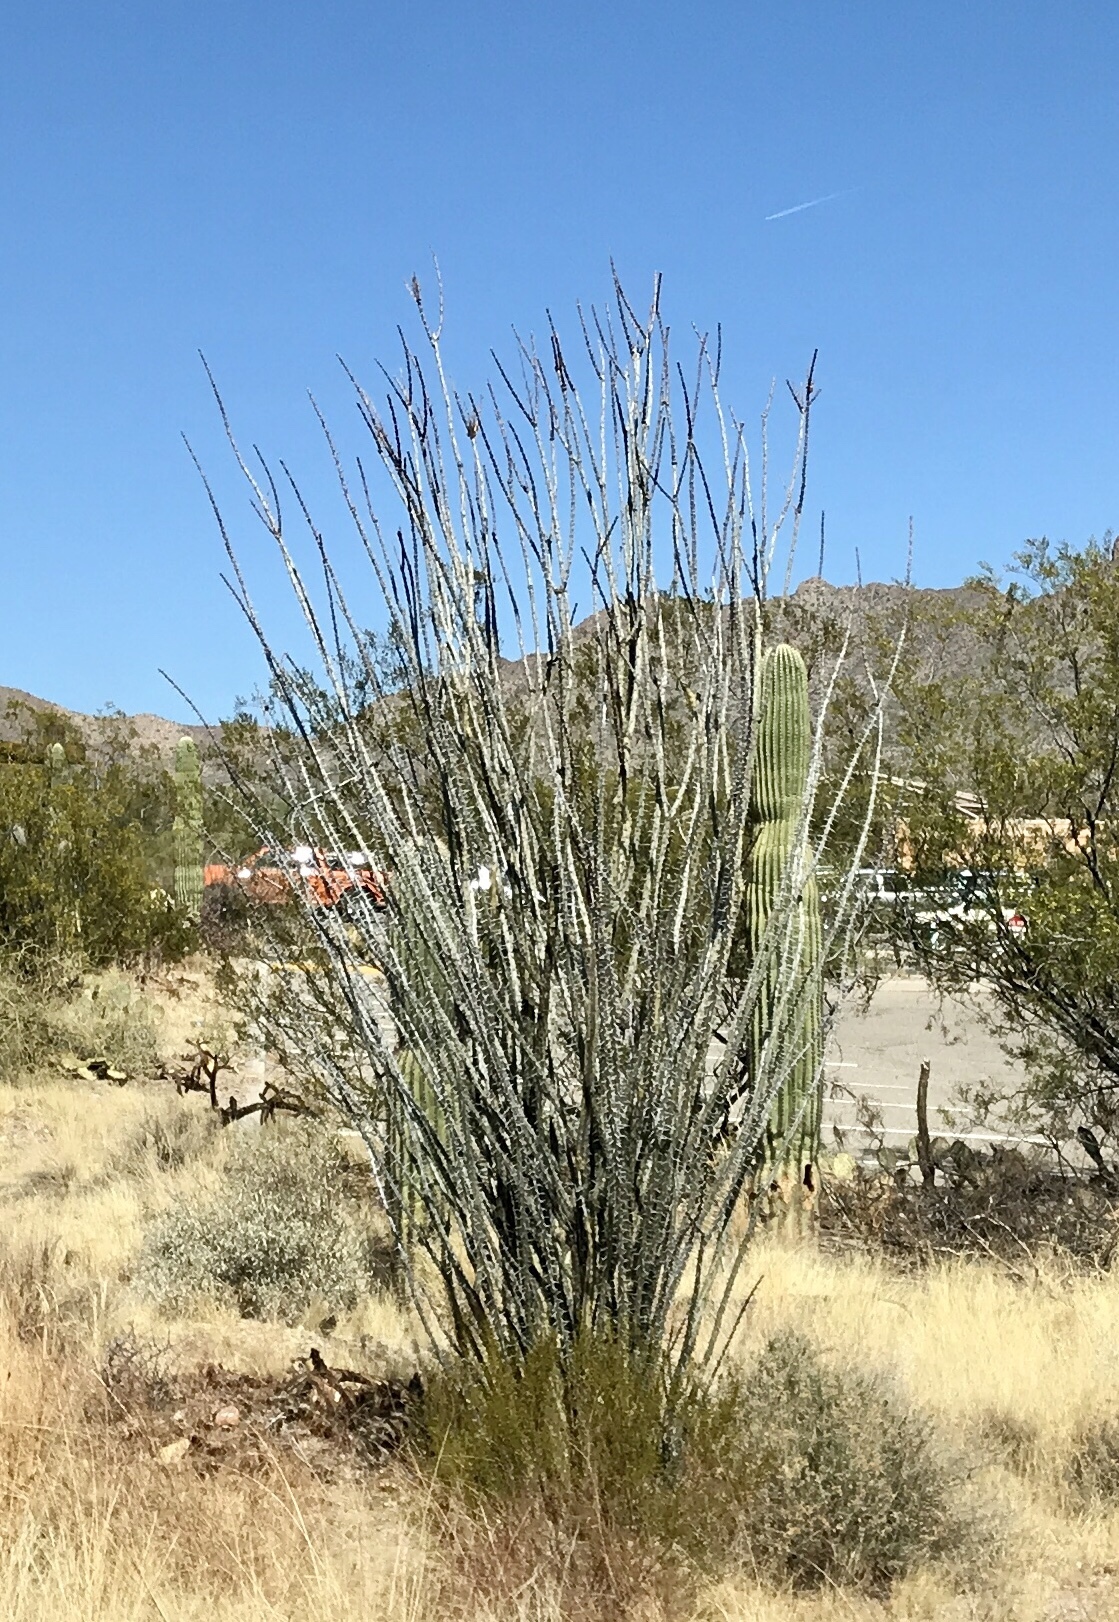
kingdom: Plantae
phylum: Tracheophyta
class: Magnoliopsida
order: Ericales
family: Fouquieriaceae
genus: Fouquieria
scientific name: Fouquieria splendens
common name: Vine-cactus
